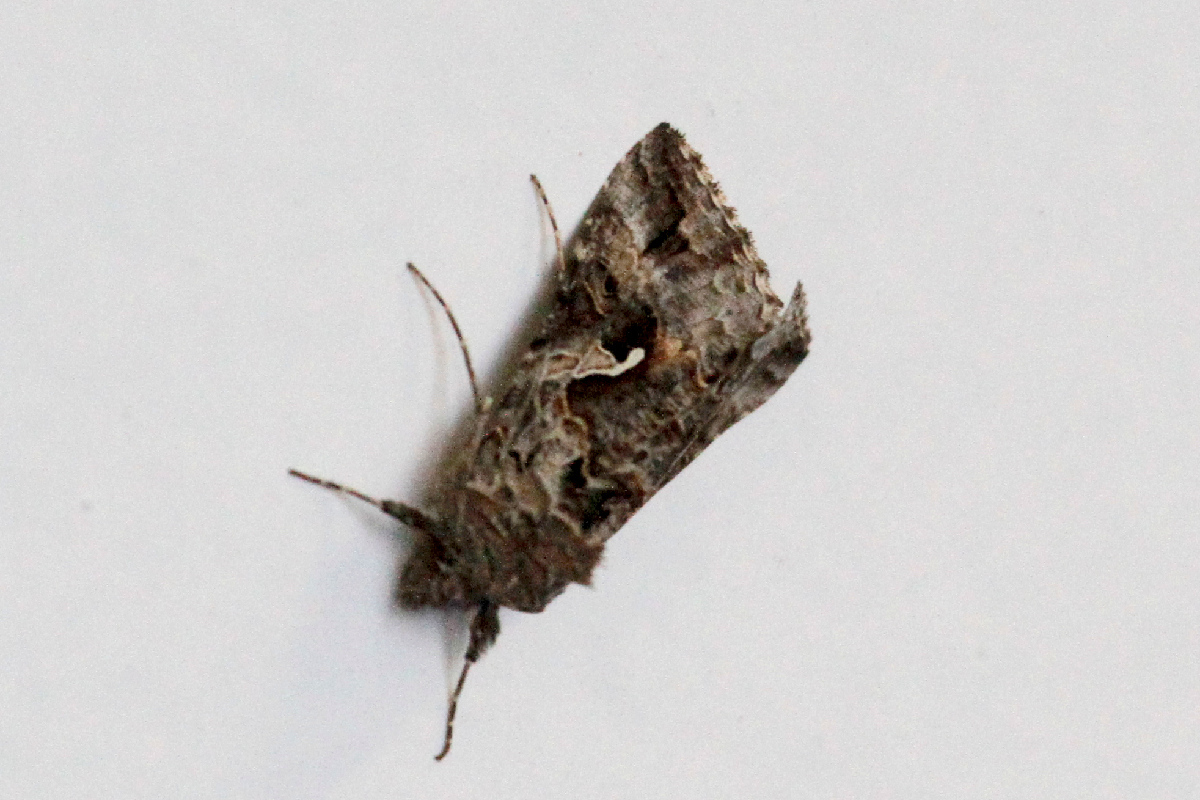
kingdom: Animalia
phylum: Arthropoda
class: Insecta
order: Lepidoptera
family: Noctuidae
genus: Autographa
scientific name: Autographa californica
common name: Alfalfa looper
